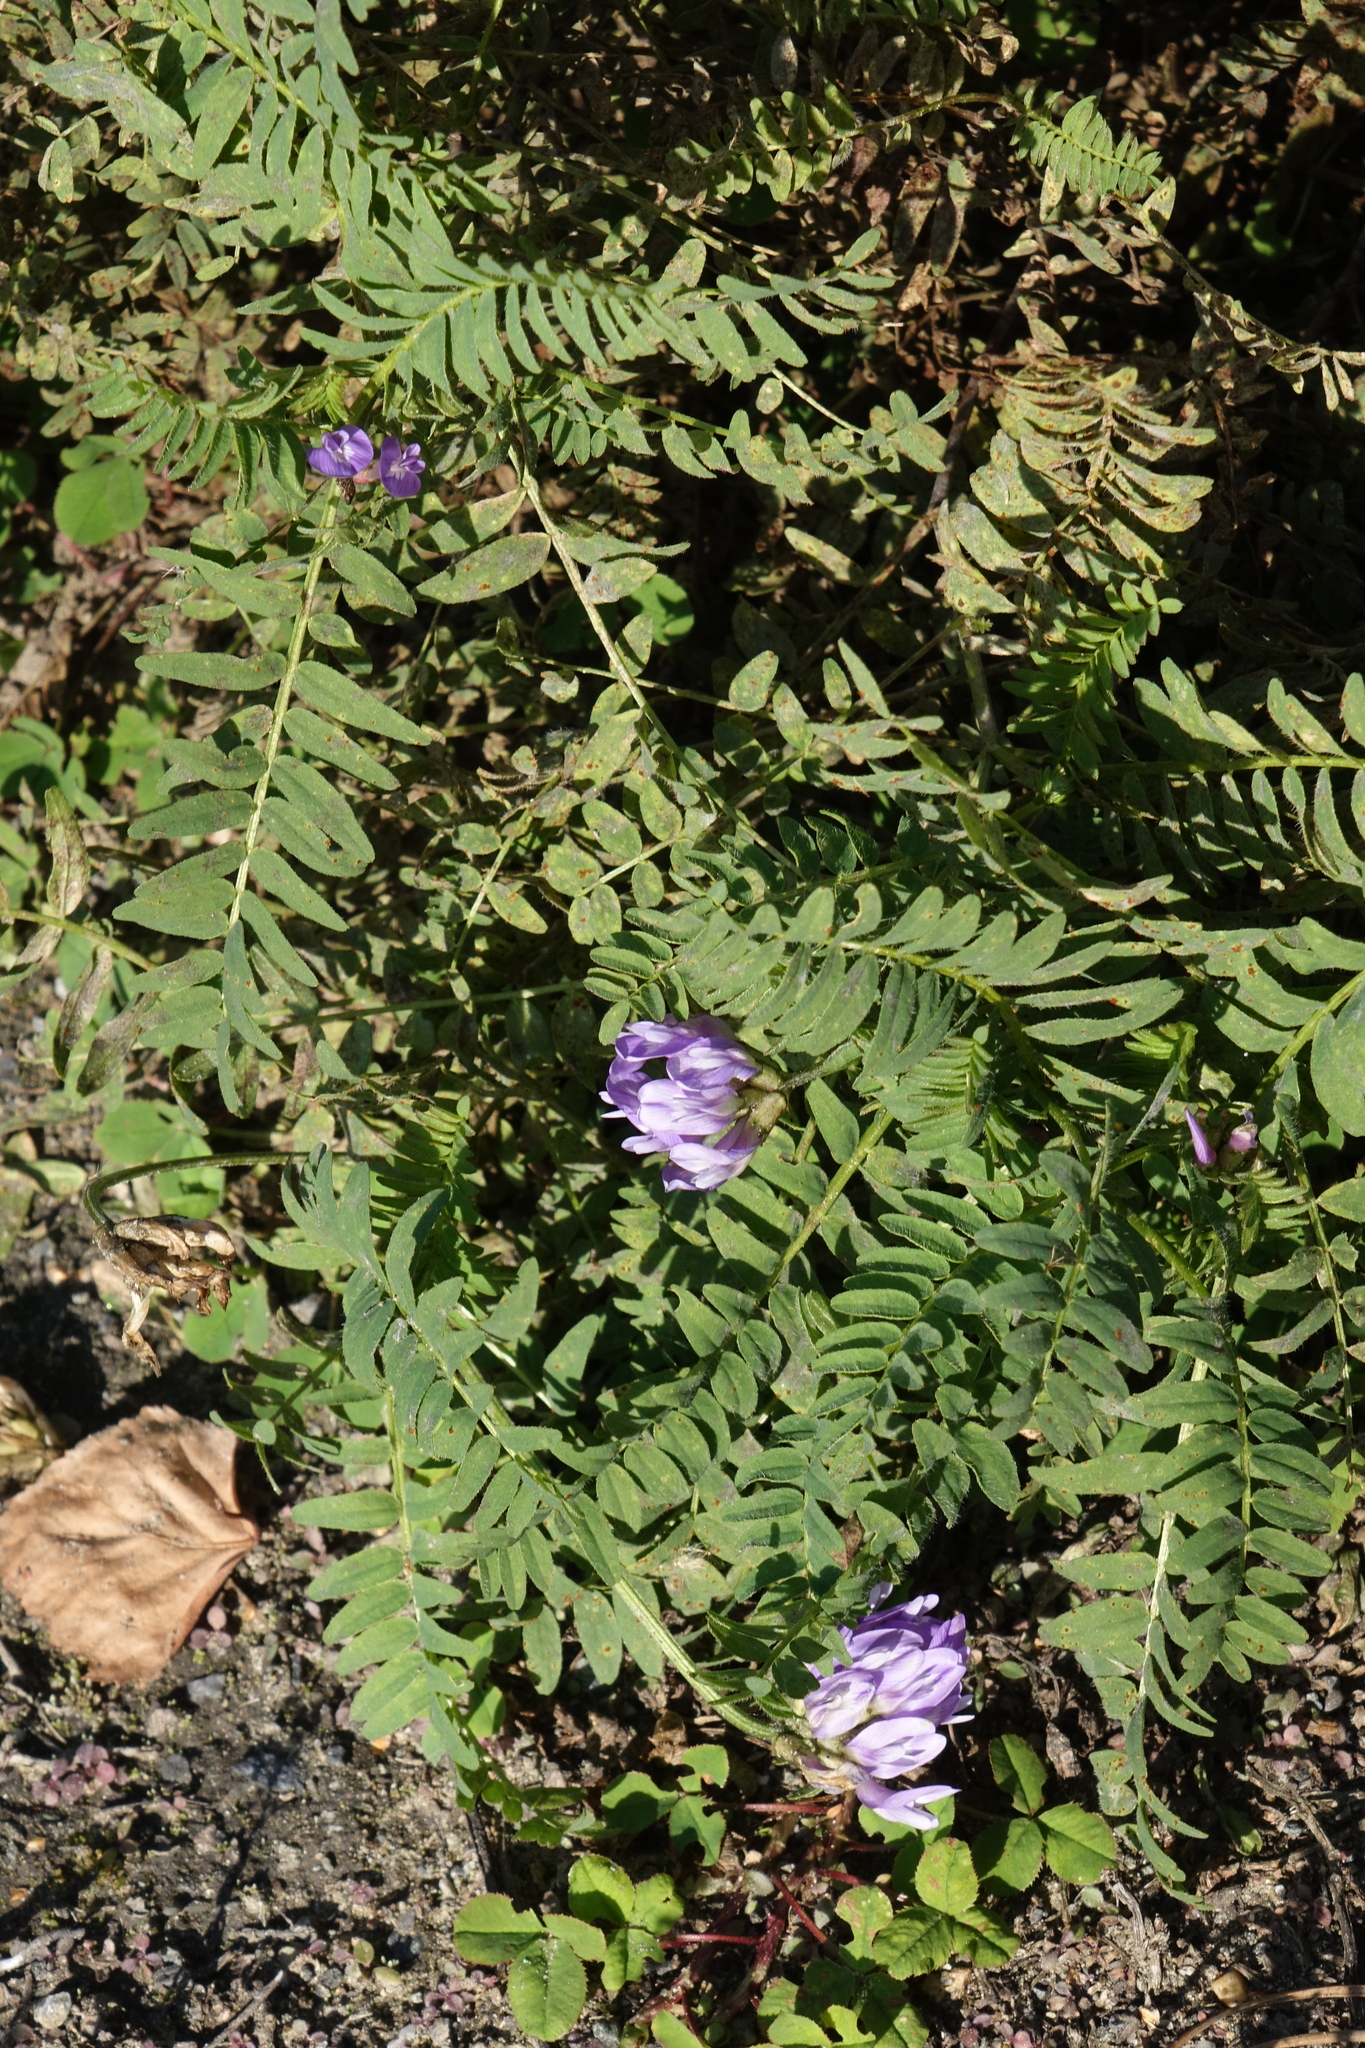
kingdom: Plantae
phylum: Tracheophyta
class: Magnoliopsida
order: Fabales
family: Fabaceae
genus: Astragalus
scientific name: Astragalus danicus
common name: Purple milk-vetch
